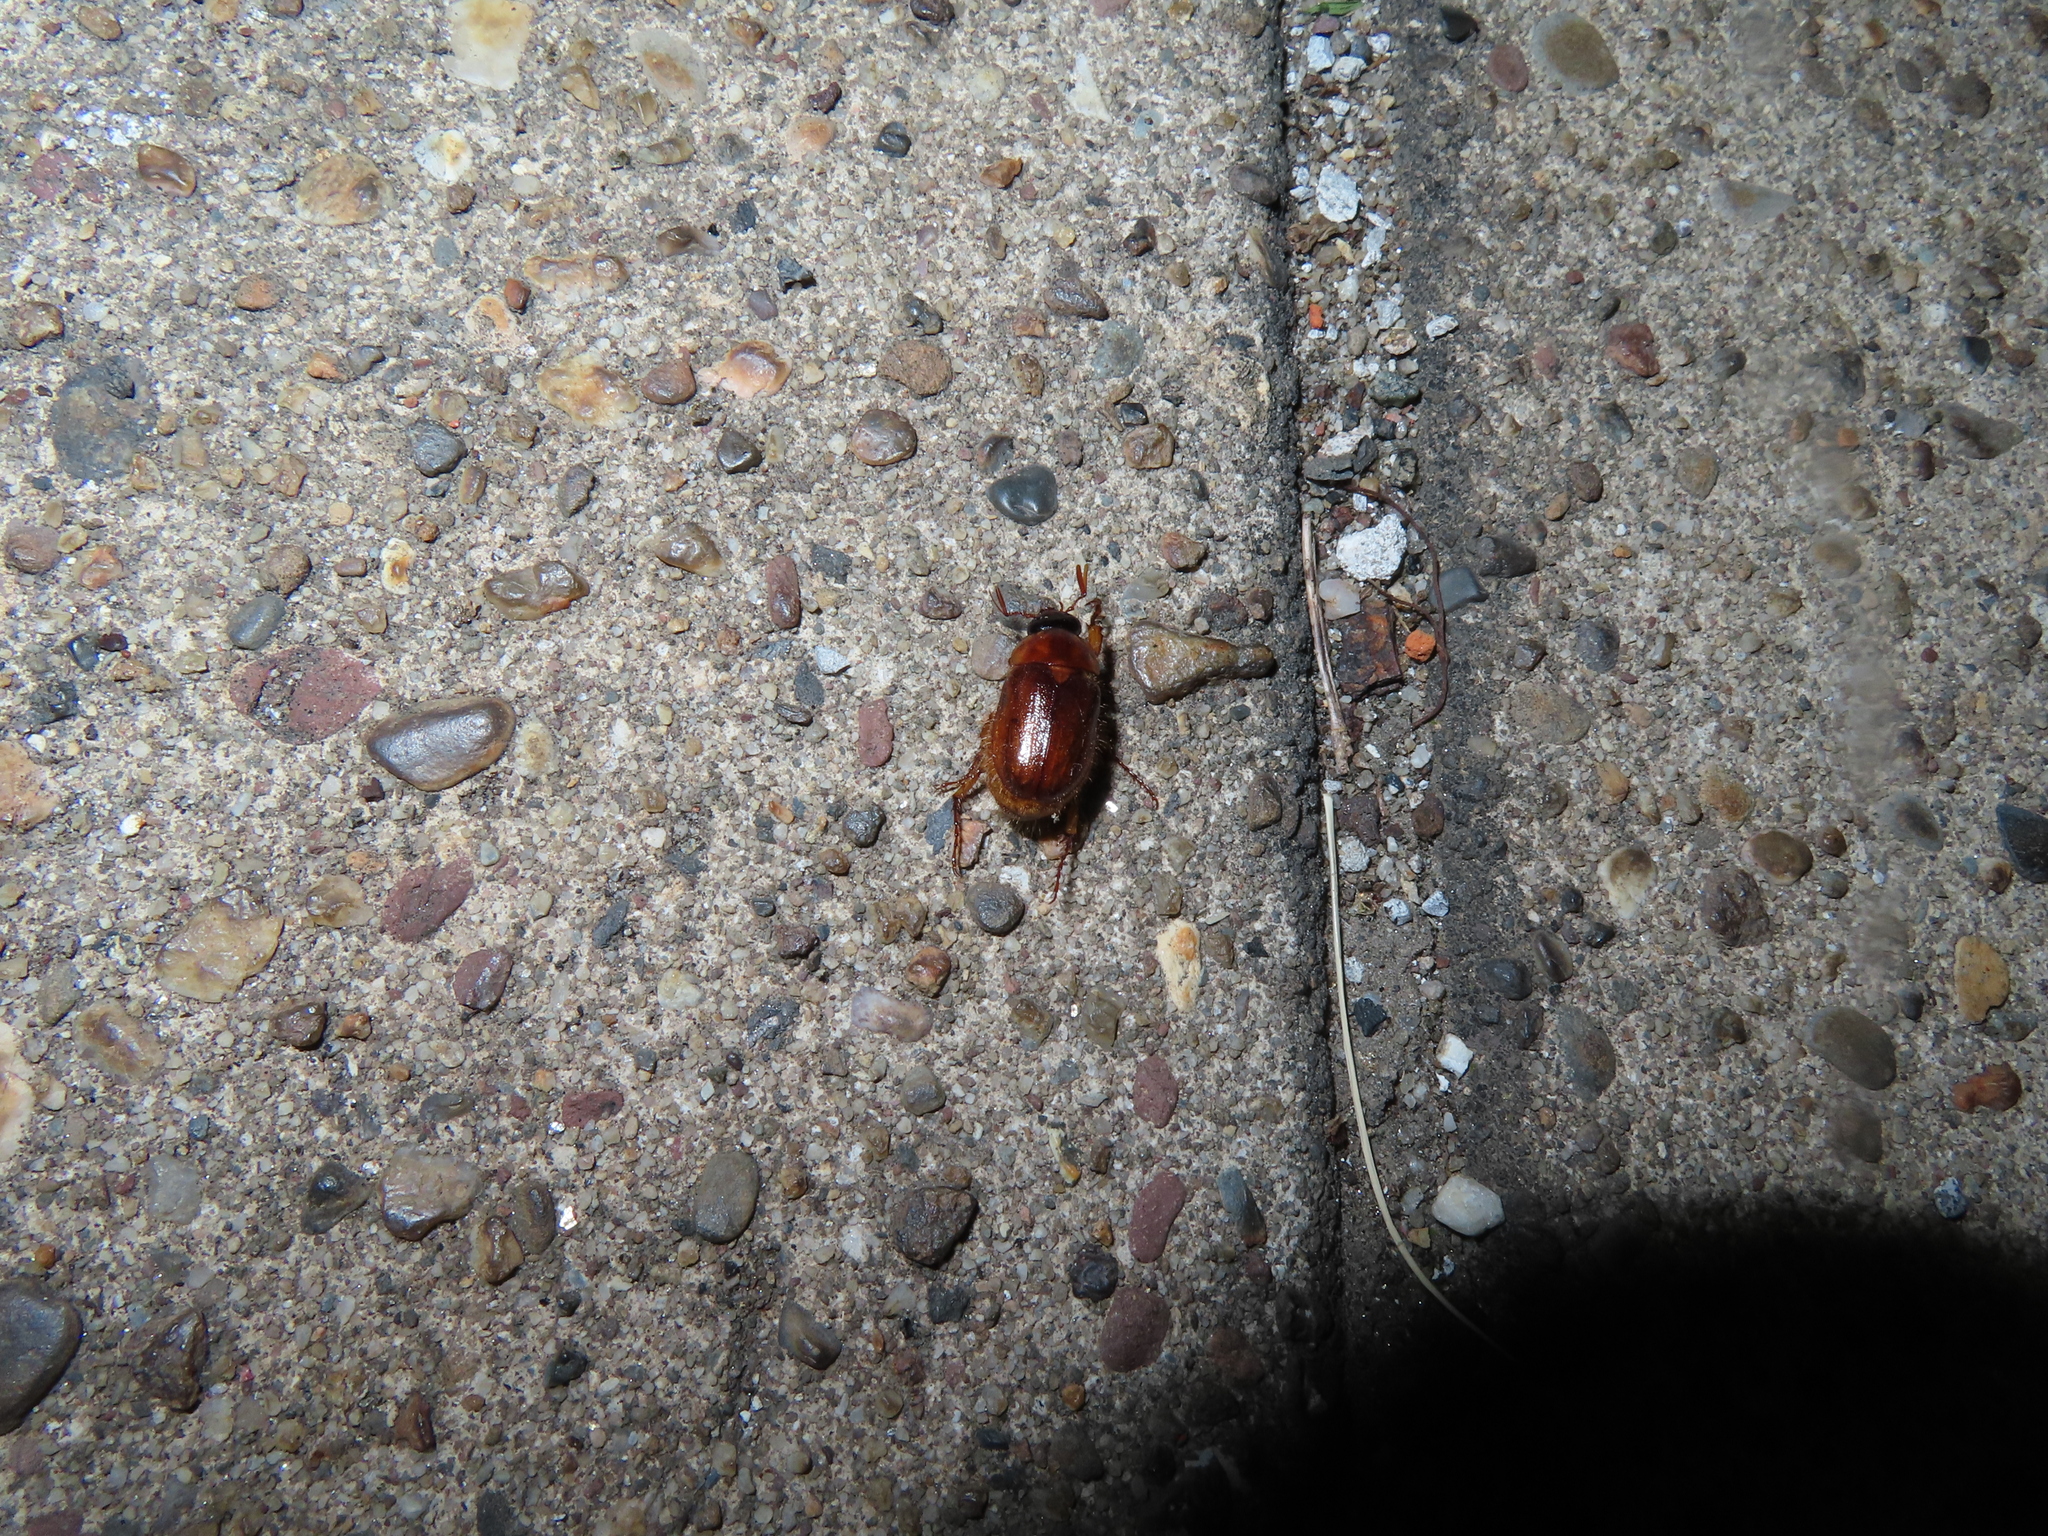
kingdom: Animalia
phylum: Arthropoda
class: Insecta
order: Coleoptera
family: Scarabaeidae
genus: Cyclocephala
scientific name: Cyclocephala lurida
